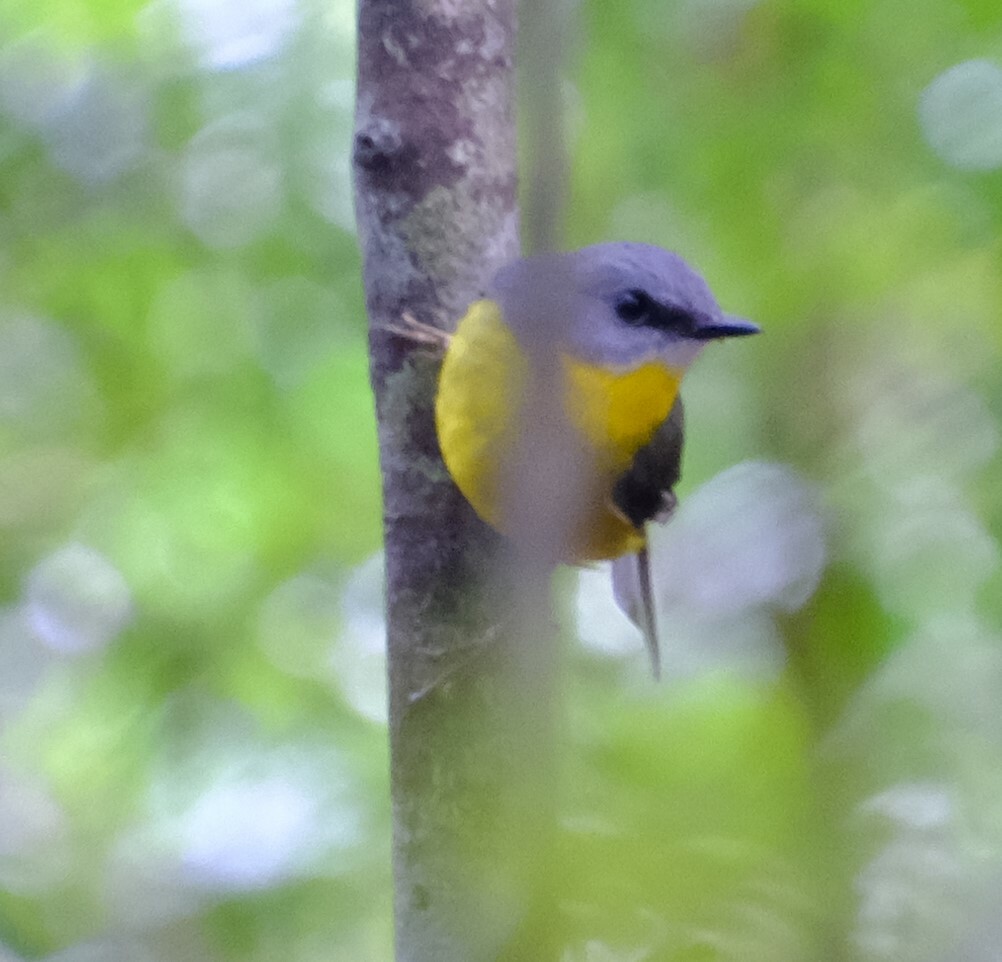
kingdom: Animalia
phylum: Chordata
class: Aves
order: Passeriformes
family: Petroicidae
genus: Eopsaltria
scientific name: Eopsaltria australis
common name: Eastern yellow robin
